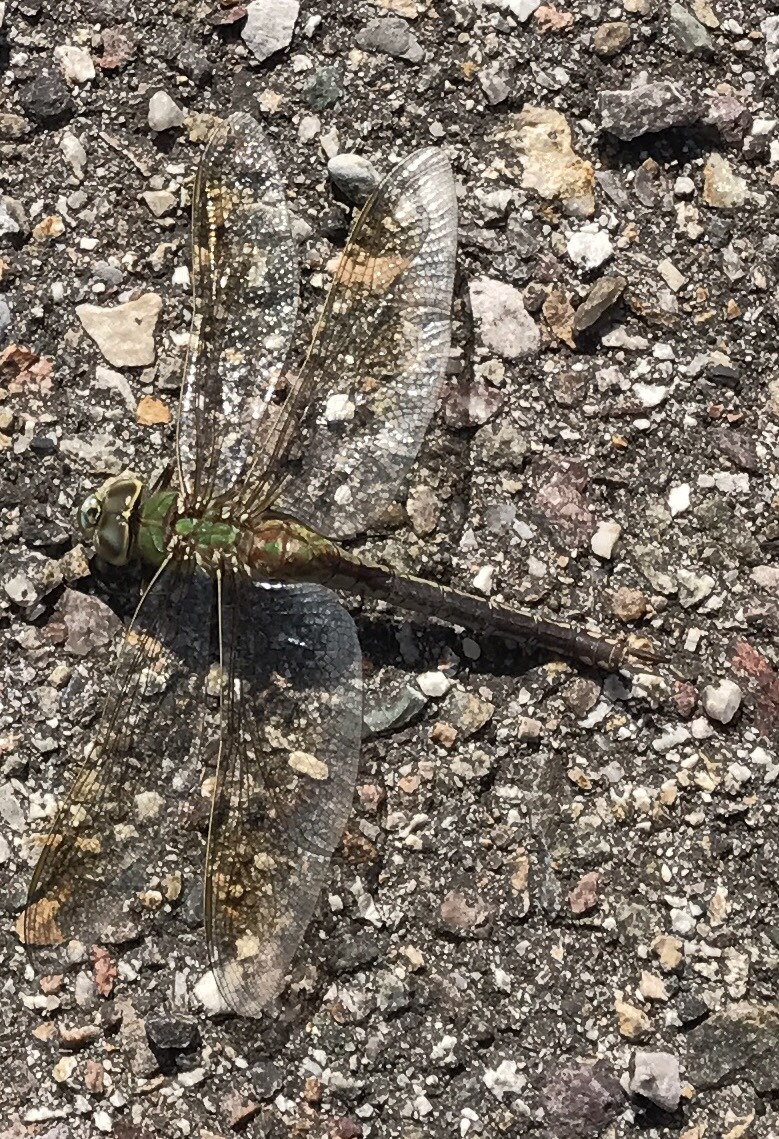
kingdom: Animalia
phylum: Arthropoda
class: Insecta
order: Odonata
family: Aeshnidae
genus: Anax
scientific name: Anax junius
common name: Common green darner
